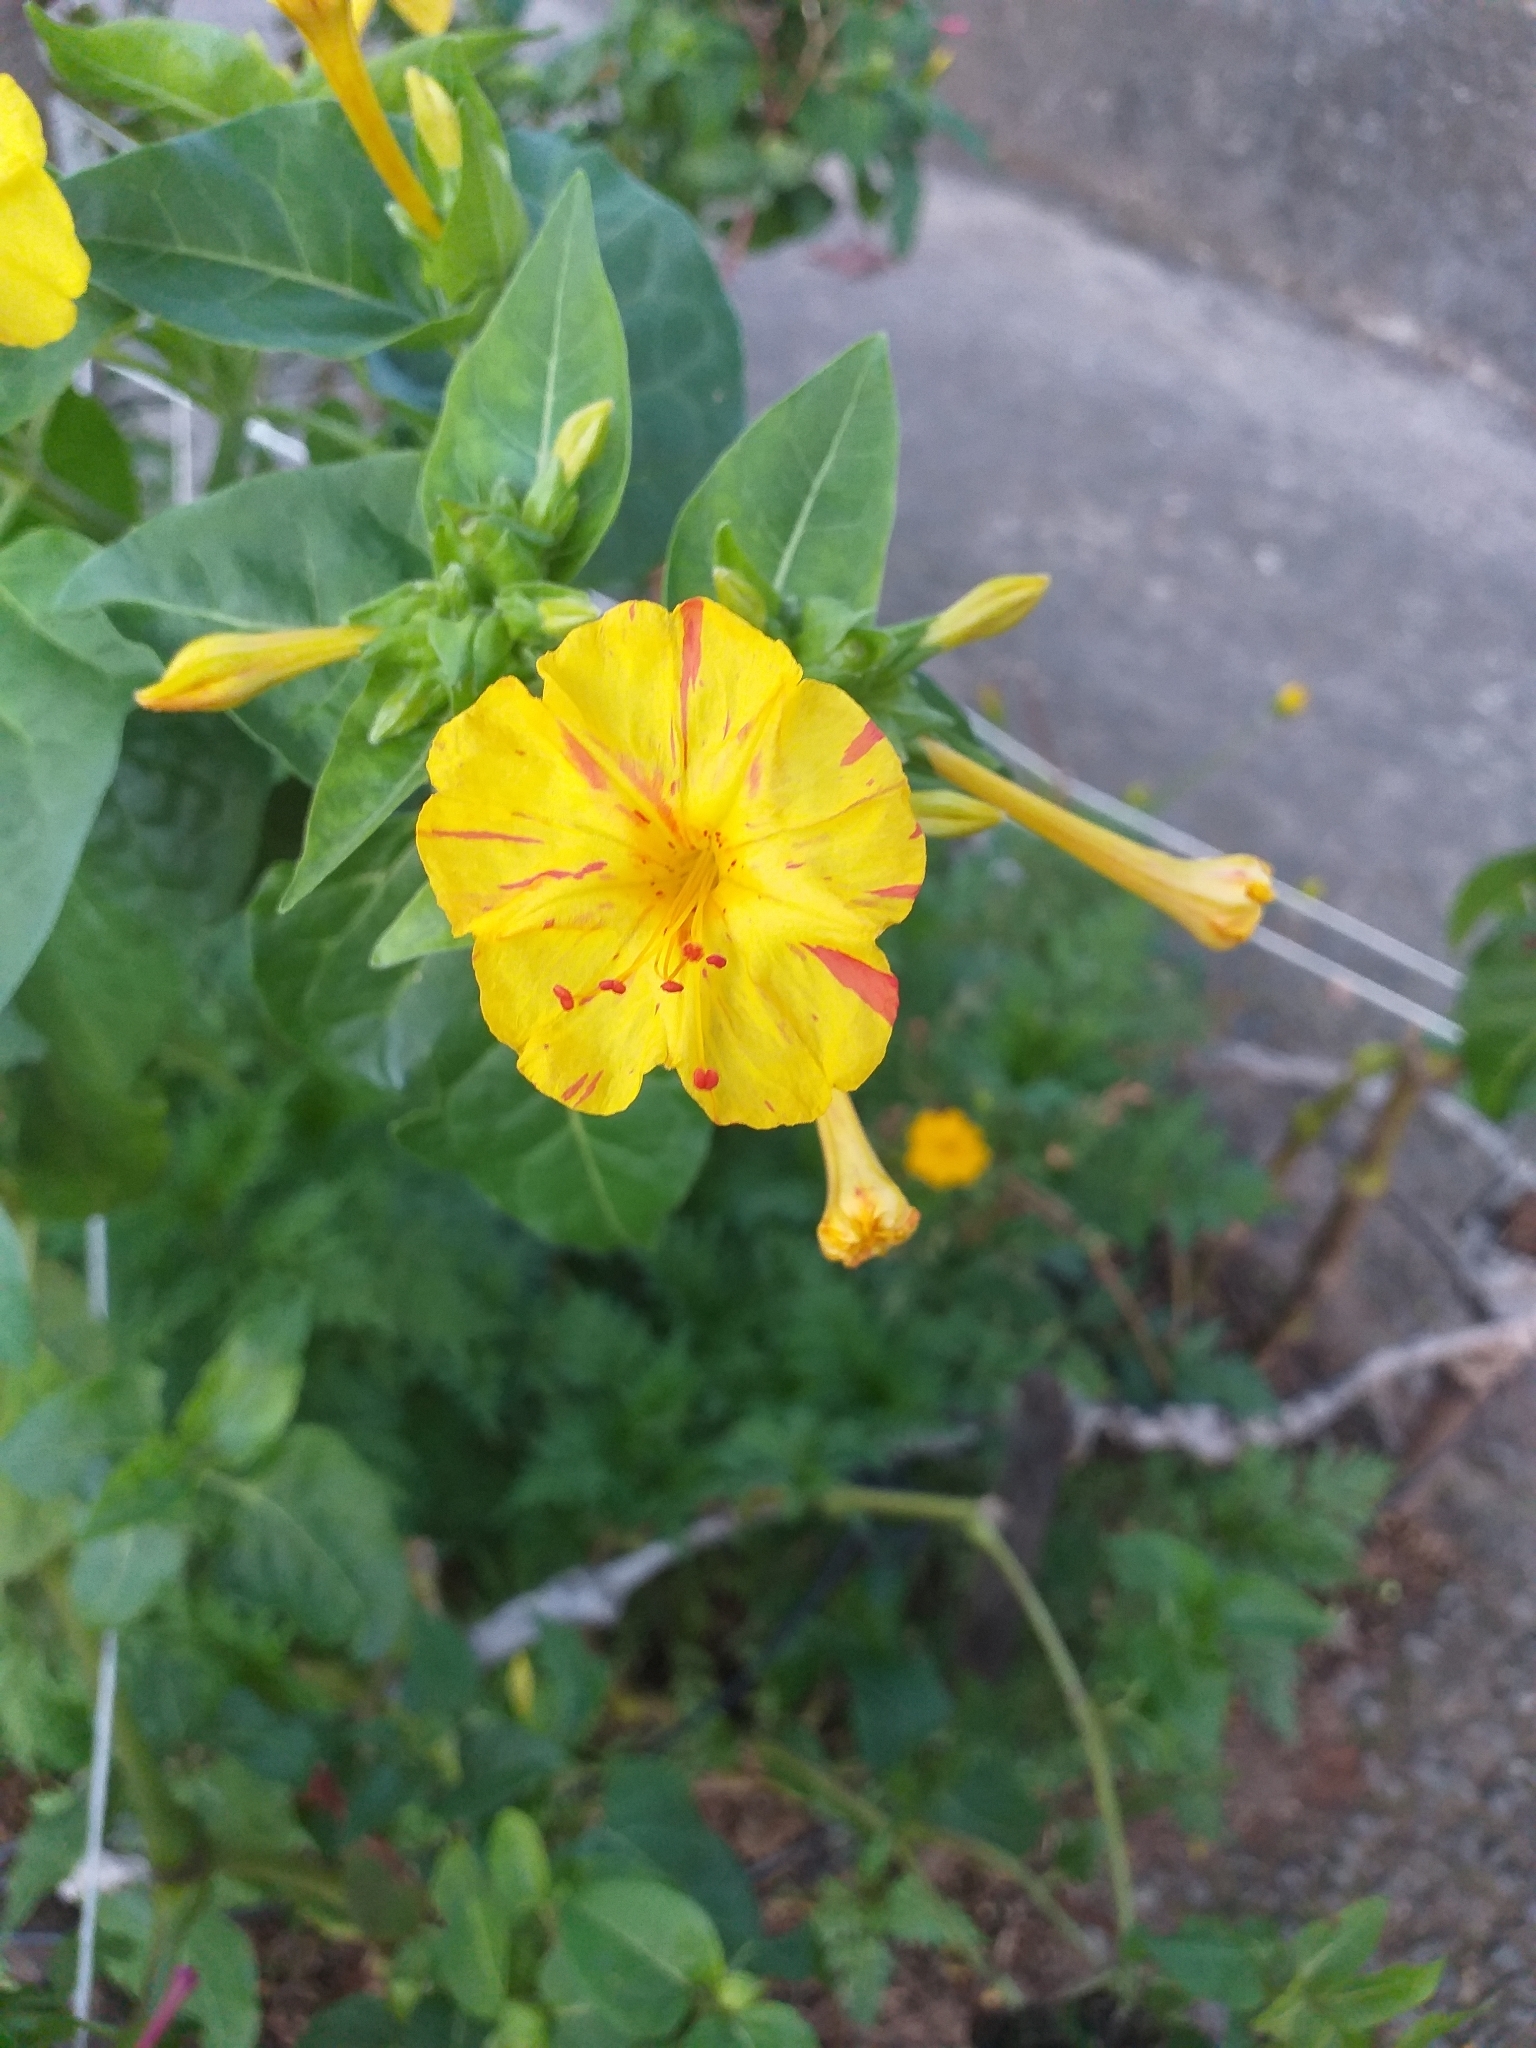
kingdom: Plantae
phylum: Tracheophyta
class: Magnoliopsida
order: Caryophyllales
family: Nyctaginaceae
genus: Mirabilis
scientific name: Mirabilis jalapa
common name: Marvel-of-peru
